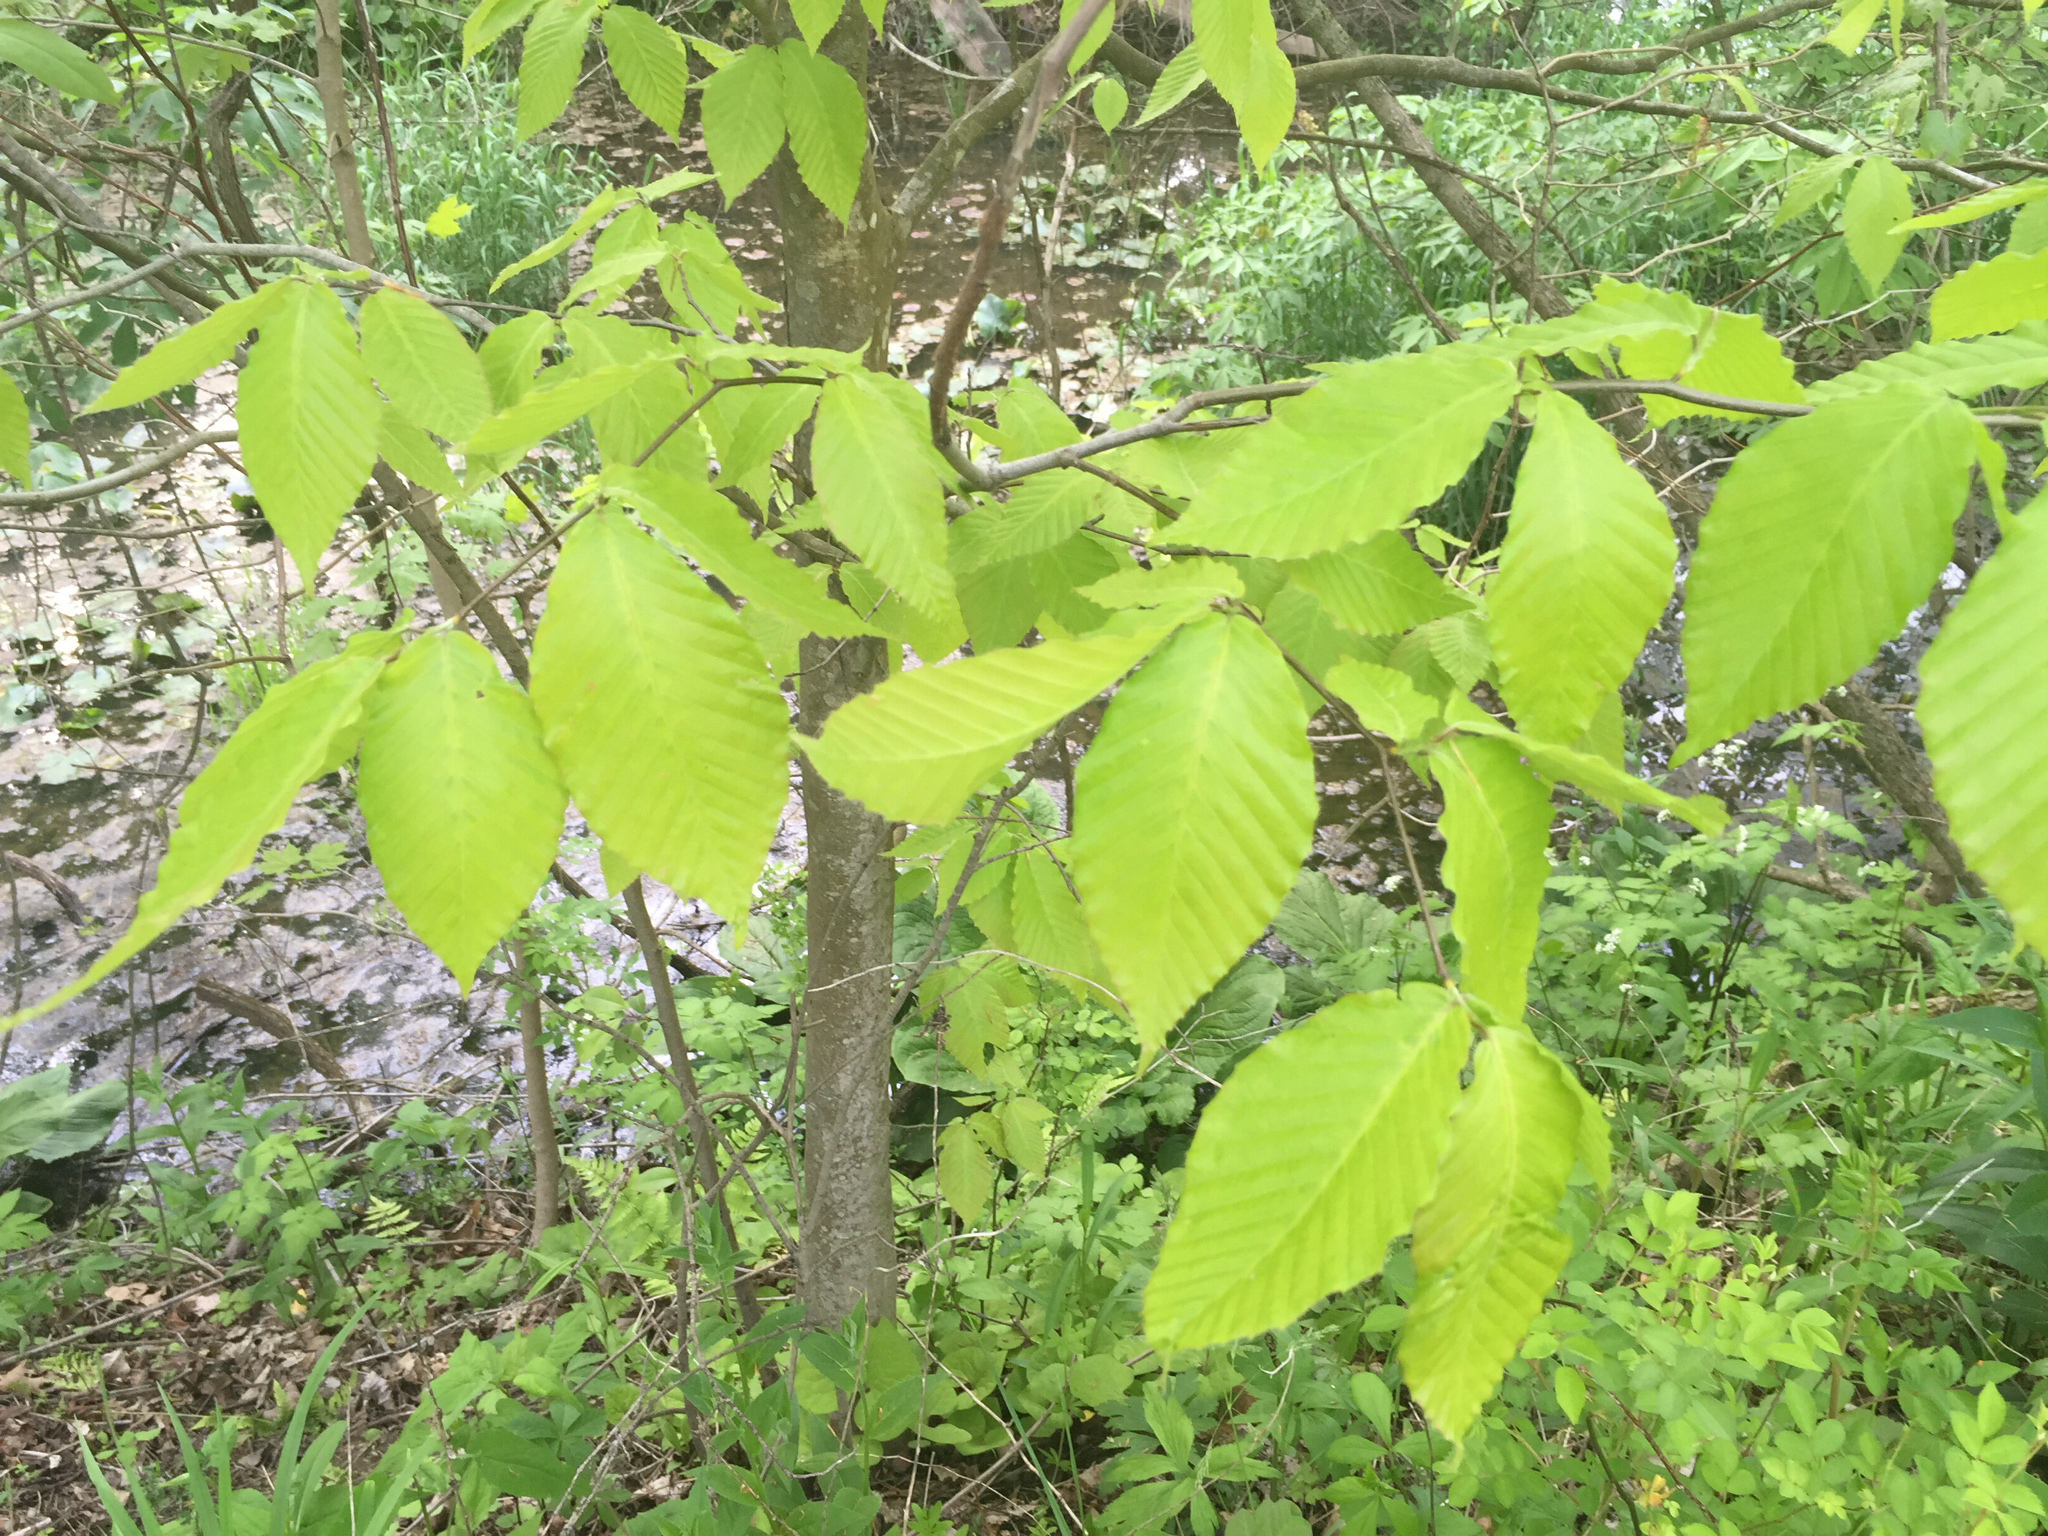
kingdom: Plantae
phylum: Tracheophyta
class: Magnoliopsida
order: Fagales
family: Fagaceae
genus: Fagus
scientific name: Fagus grandifolia
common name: American beech
